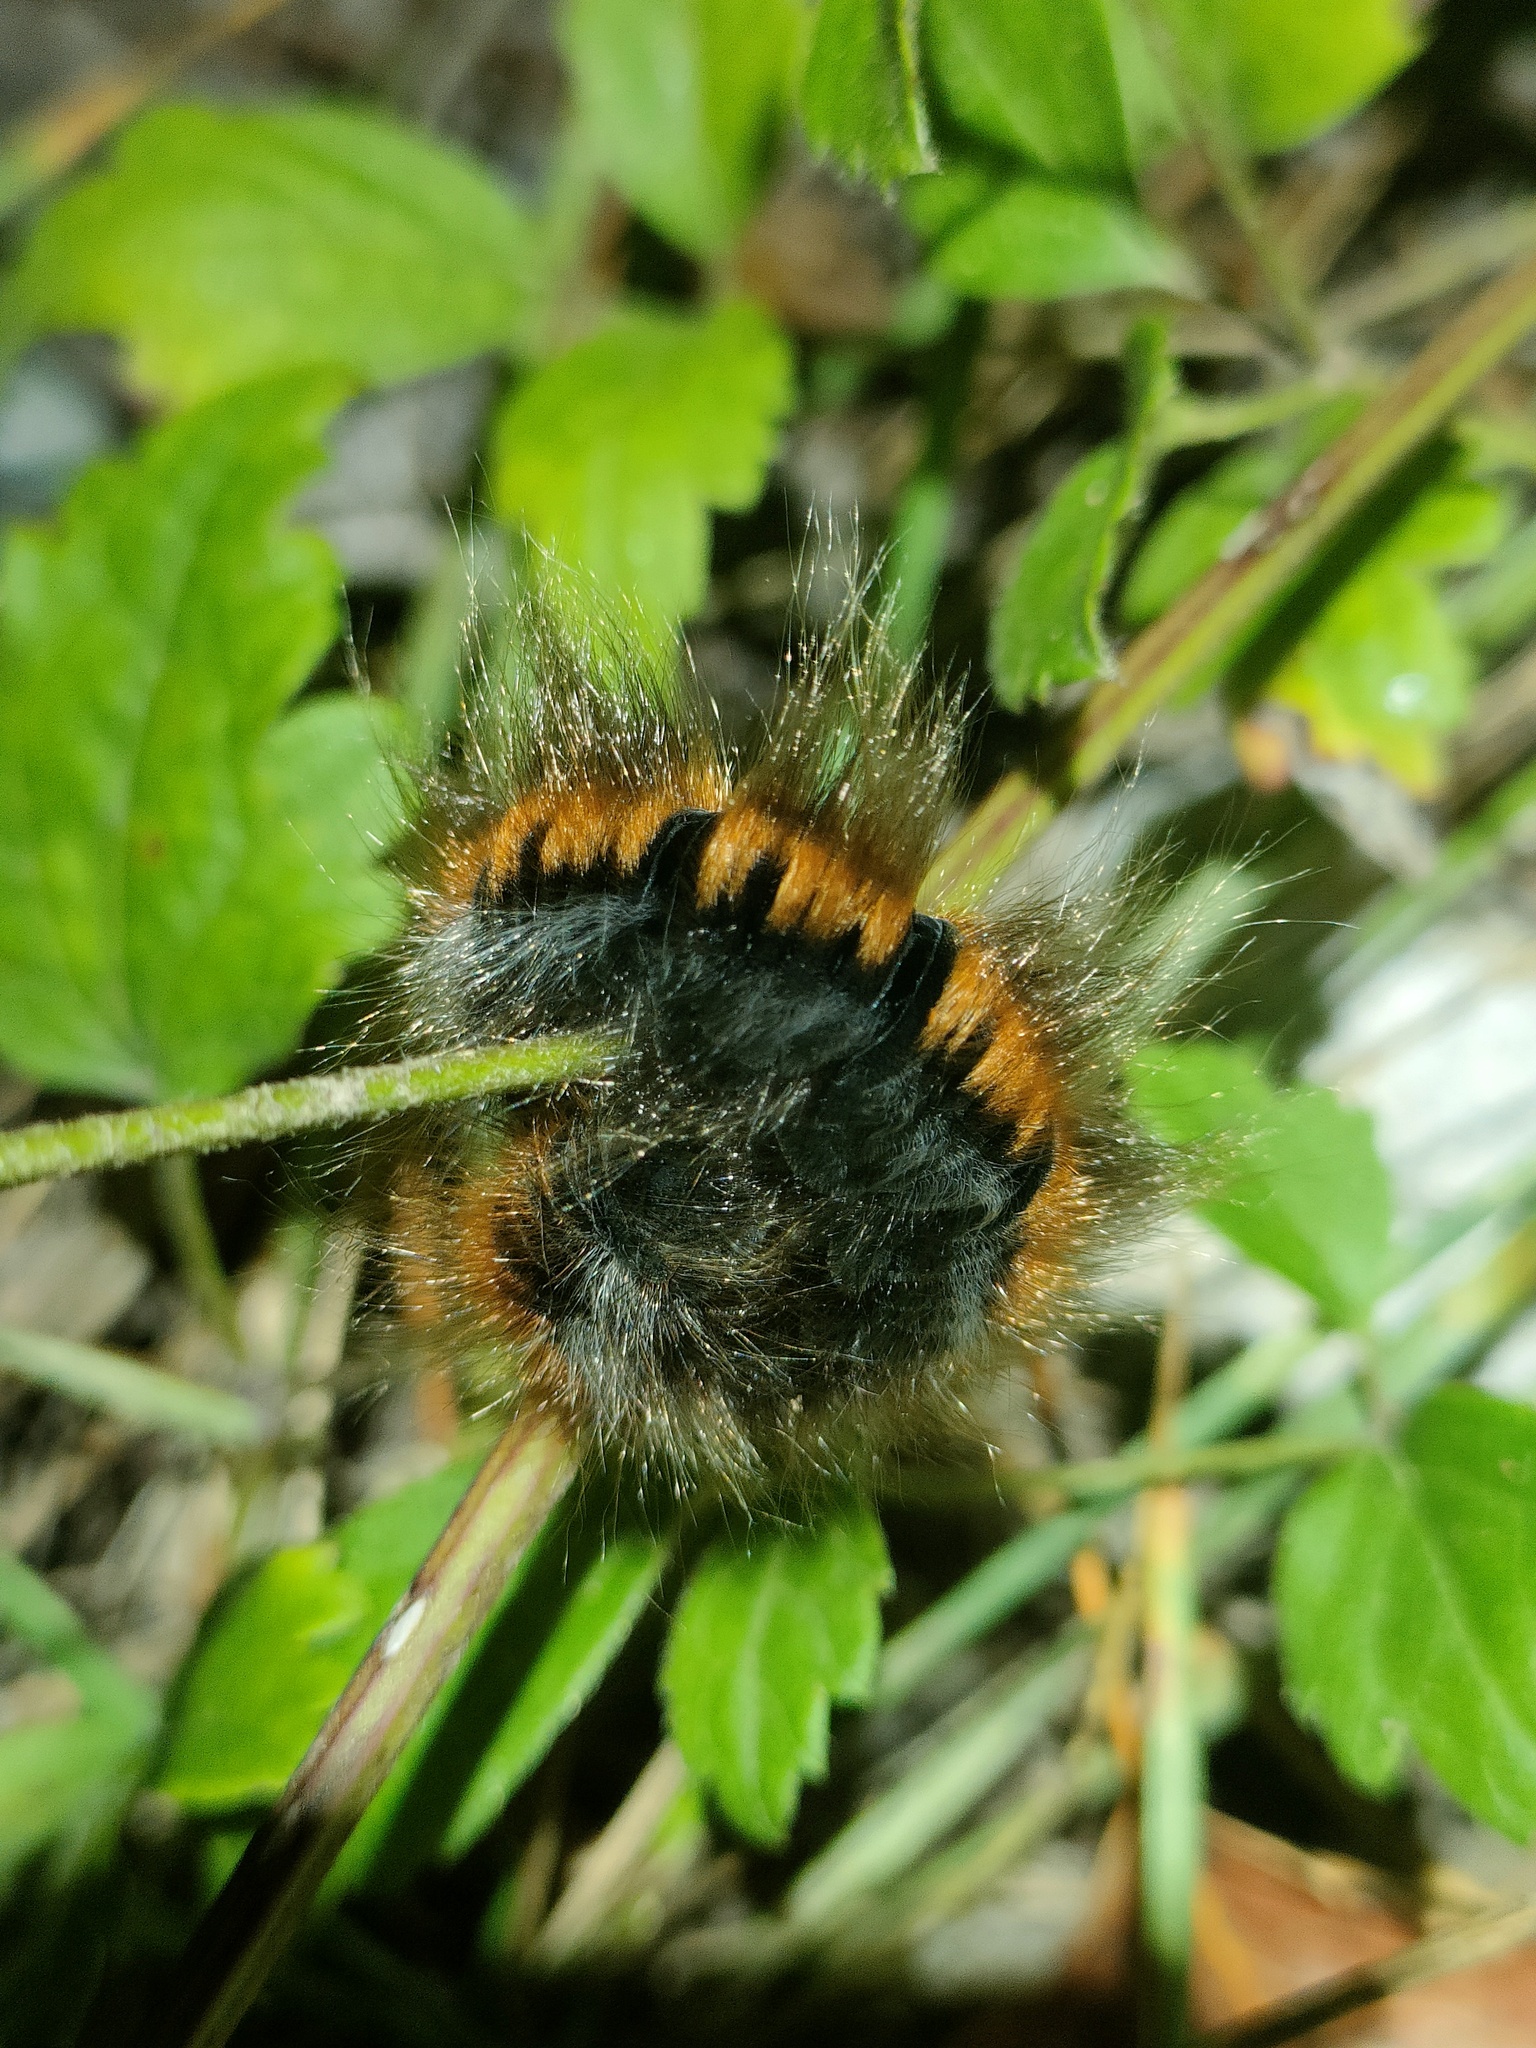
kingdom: Animalia
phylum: Arthropoda
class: Insecta
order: Lepidoptera
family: Lasiocampidae
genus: Macrothylacia
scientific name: Macrothylacia rubi
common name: Fox moth
